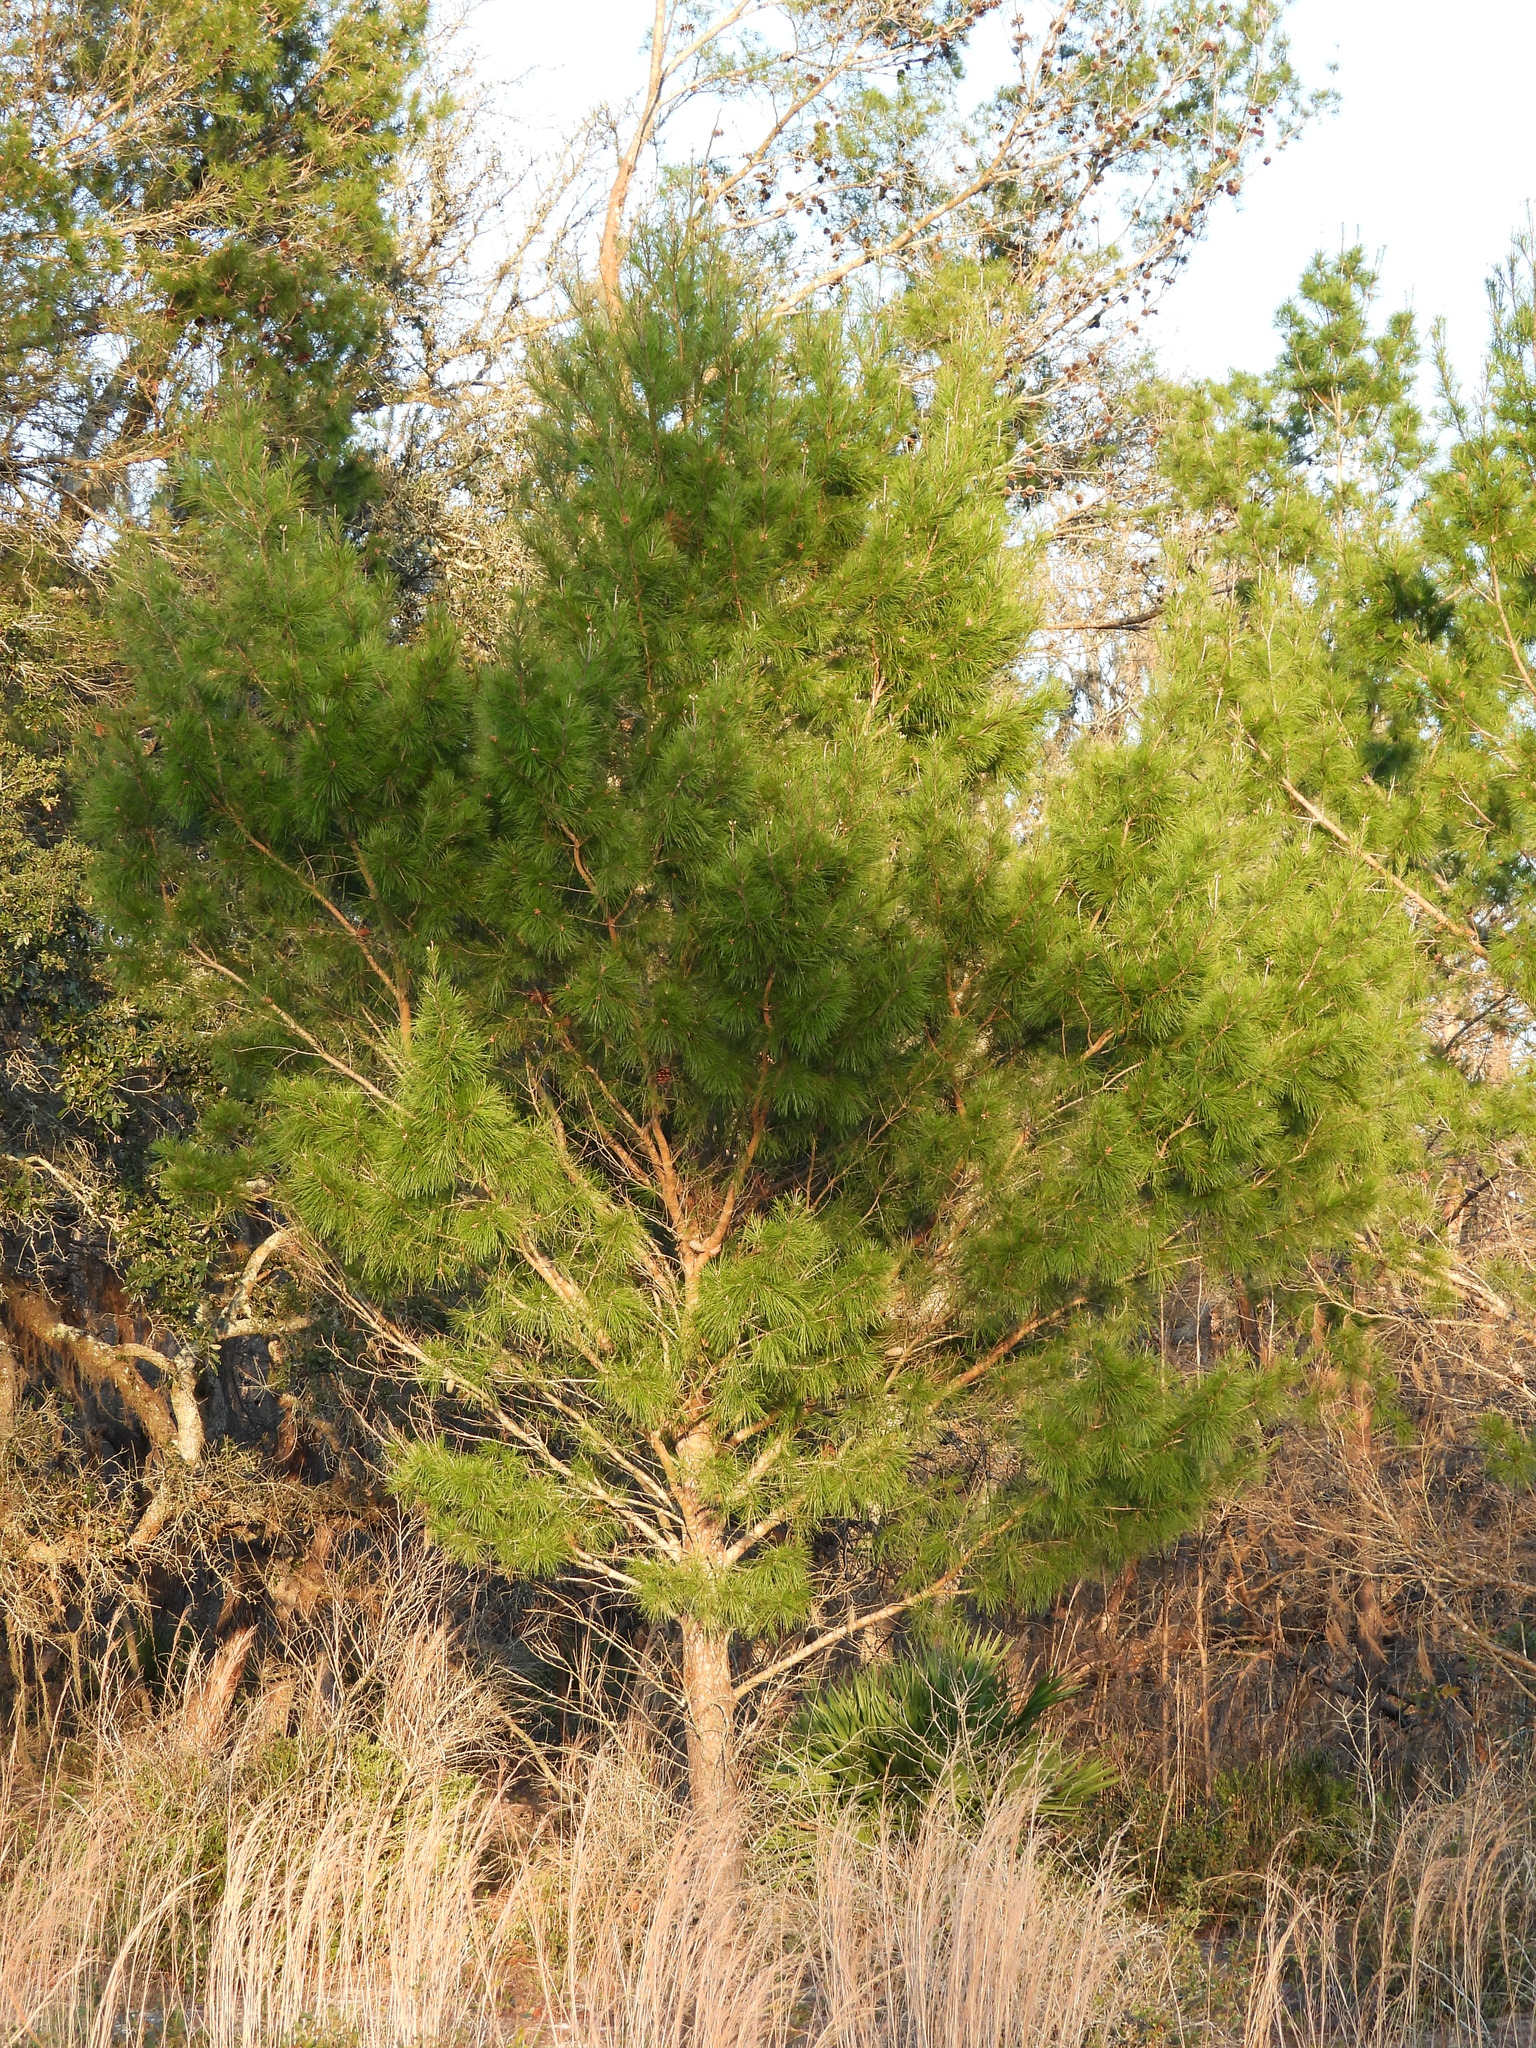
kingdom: Plantae
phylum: Tracheophyta
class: Pinopsida
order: Pinales
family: Pinaceae
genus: Pinus
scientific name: Pinus clausa
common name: Sand pine
